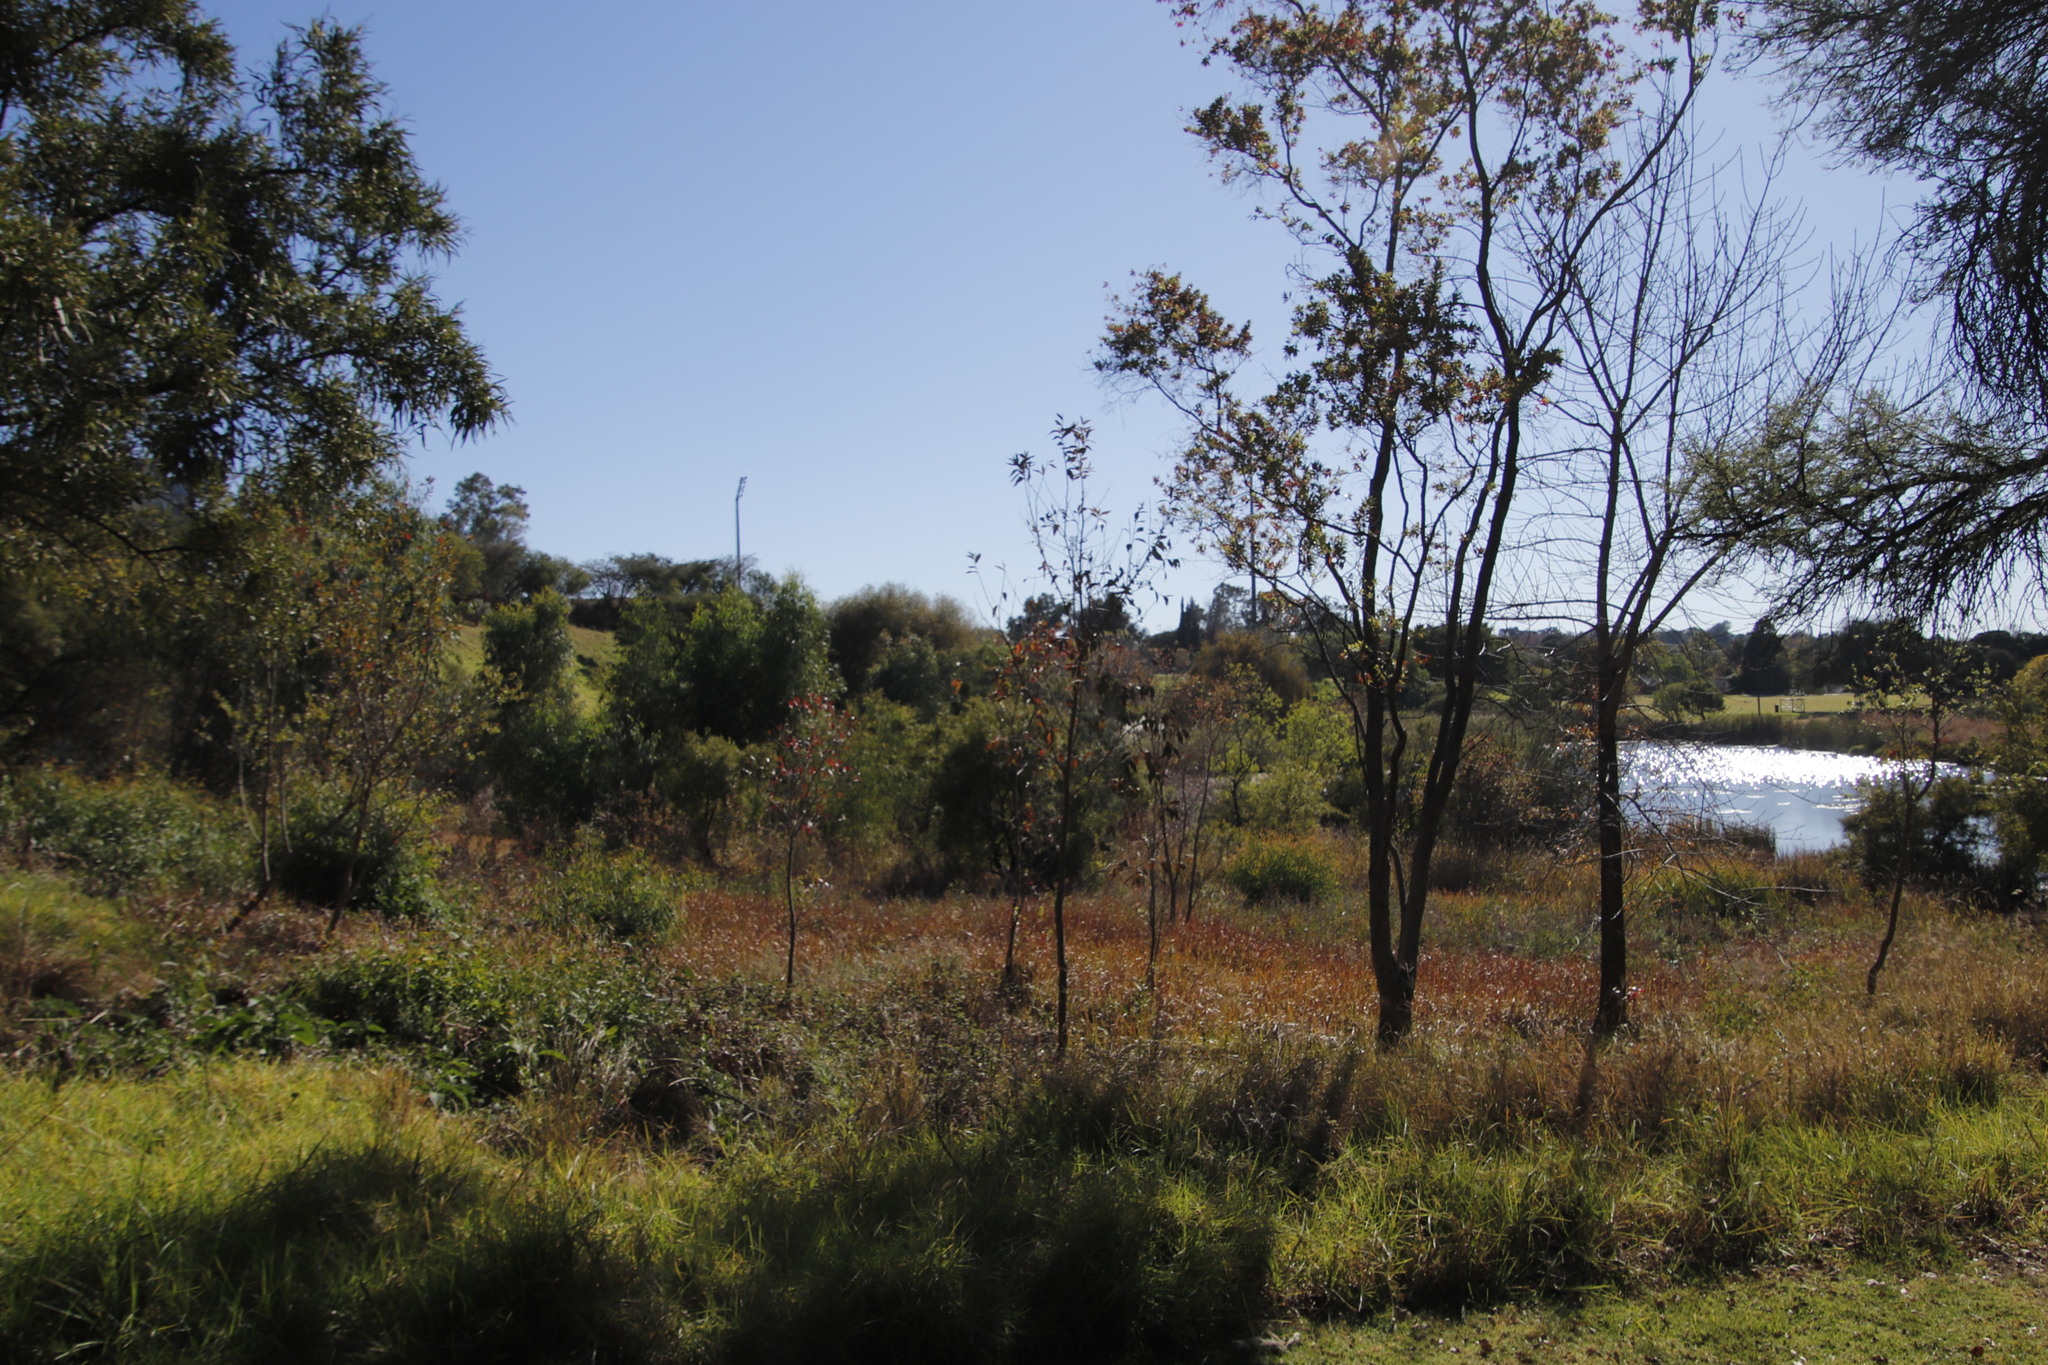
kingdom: Plantae
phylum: Tracheophyta
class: Magnoliopsida
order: Myrtales
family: Combretaceae
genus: Combretum
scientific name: Combretum erythrophyllum
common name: Bush-willow
